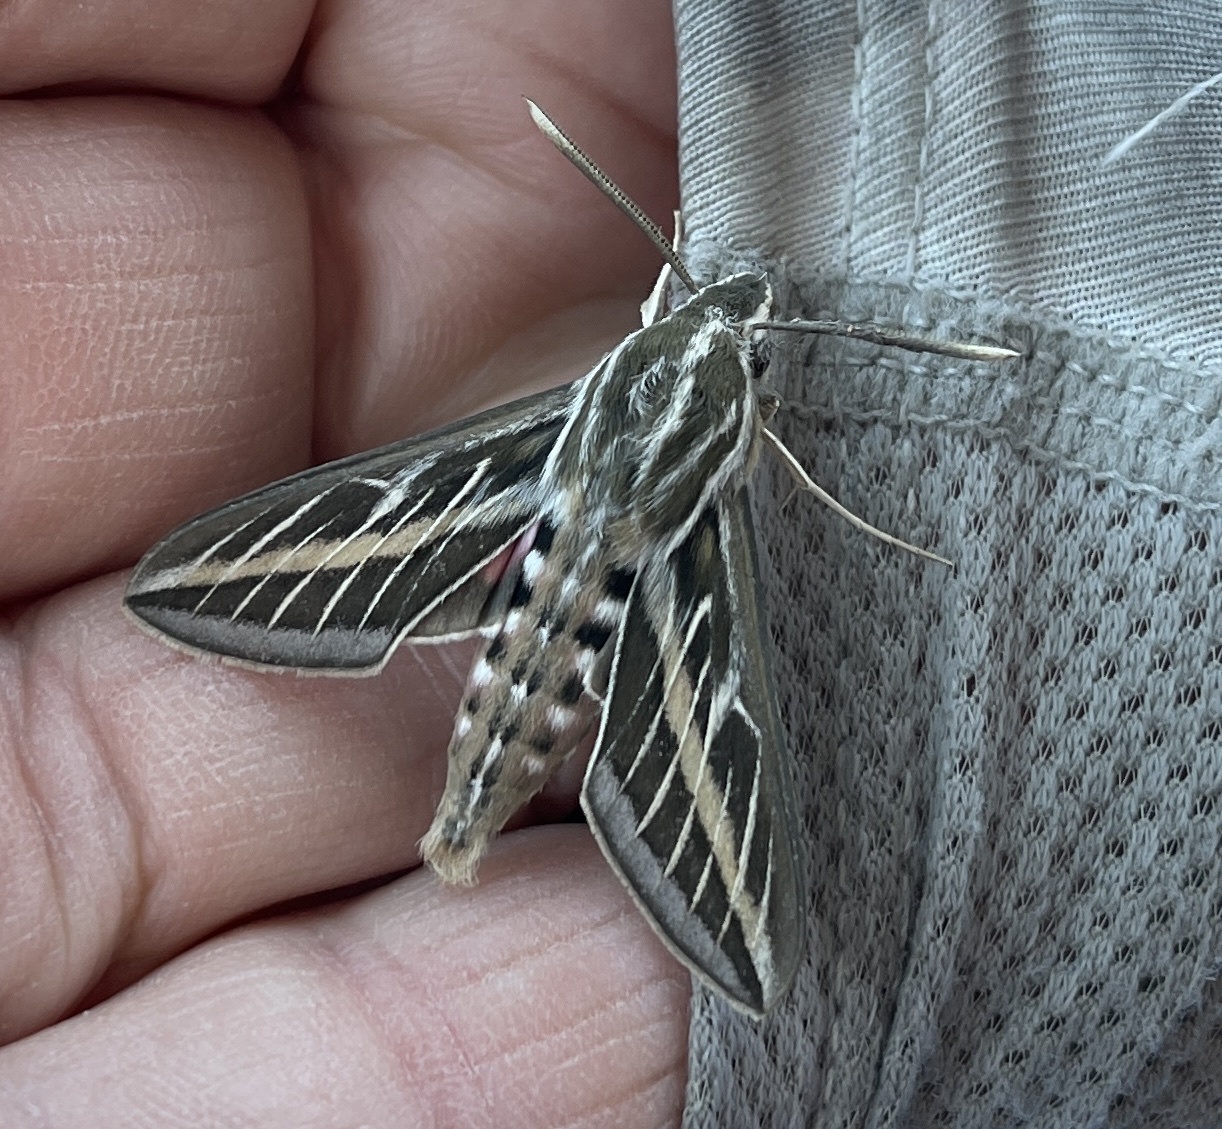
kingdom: Animalia
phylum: Arthropoda
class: Insecta
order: Lepidoptera
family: Sphingidae
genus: Hyles
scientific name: Hyles lineata
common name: White-lined sphinx
